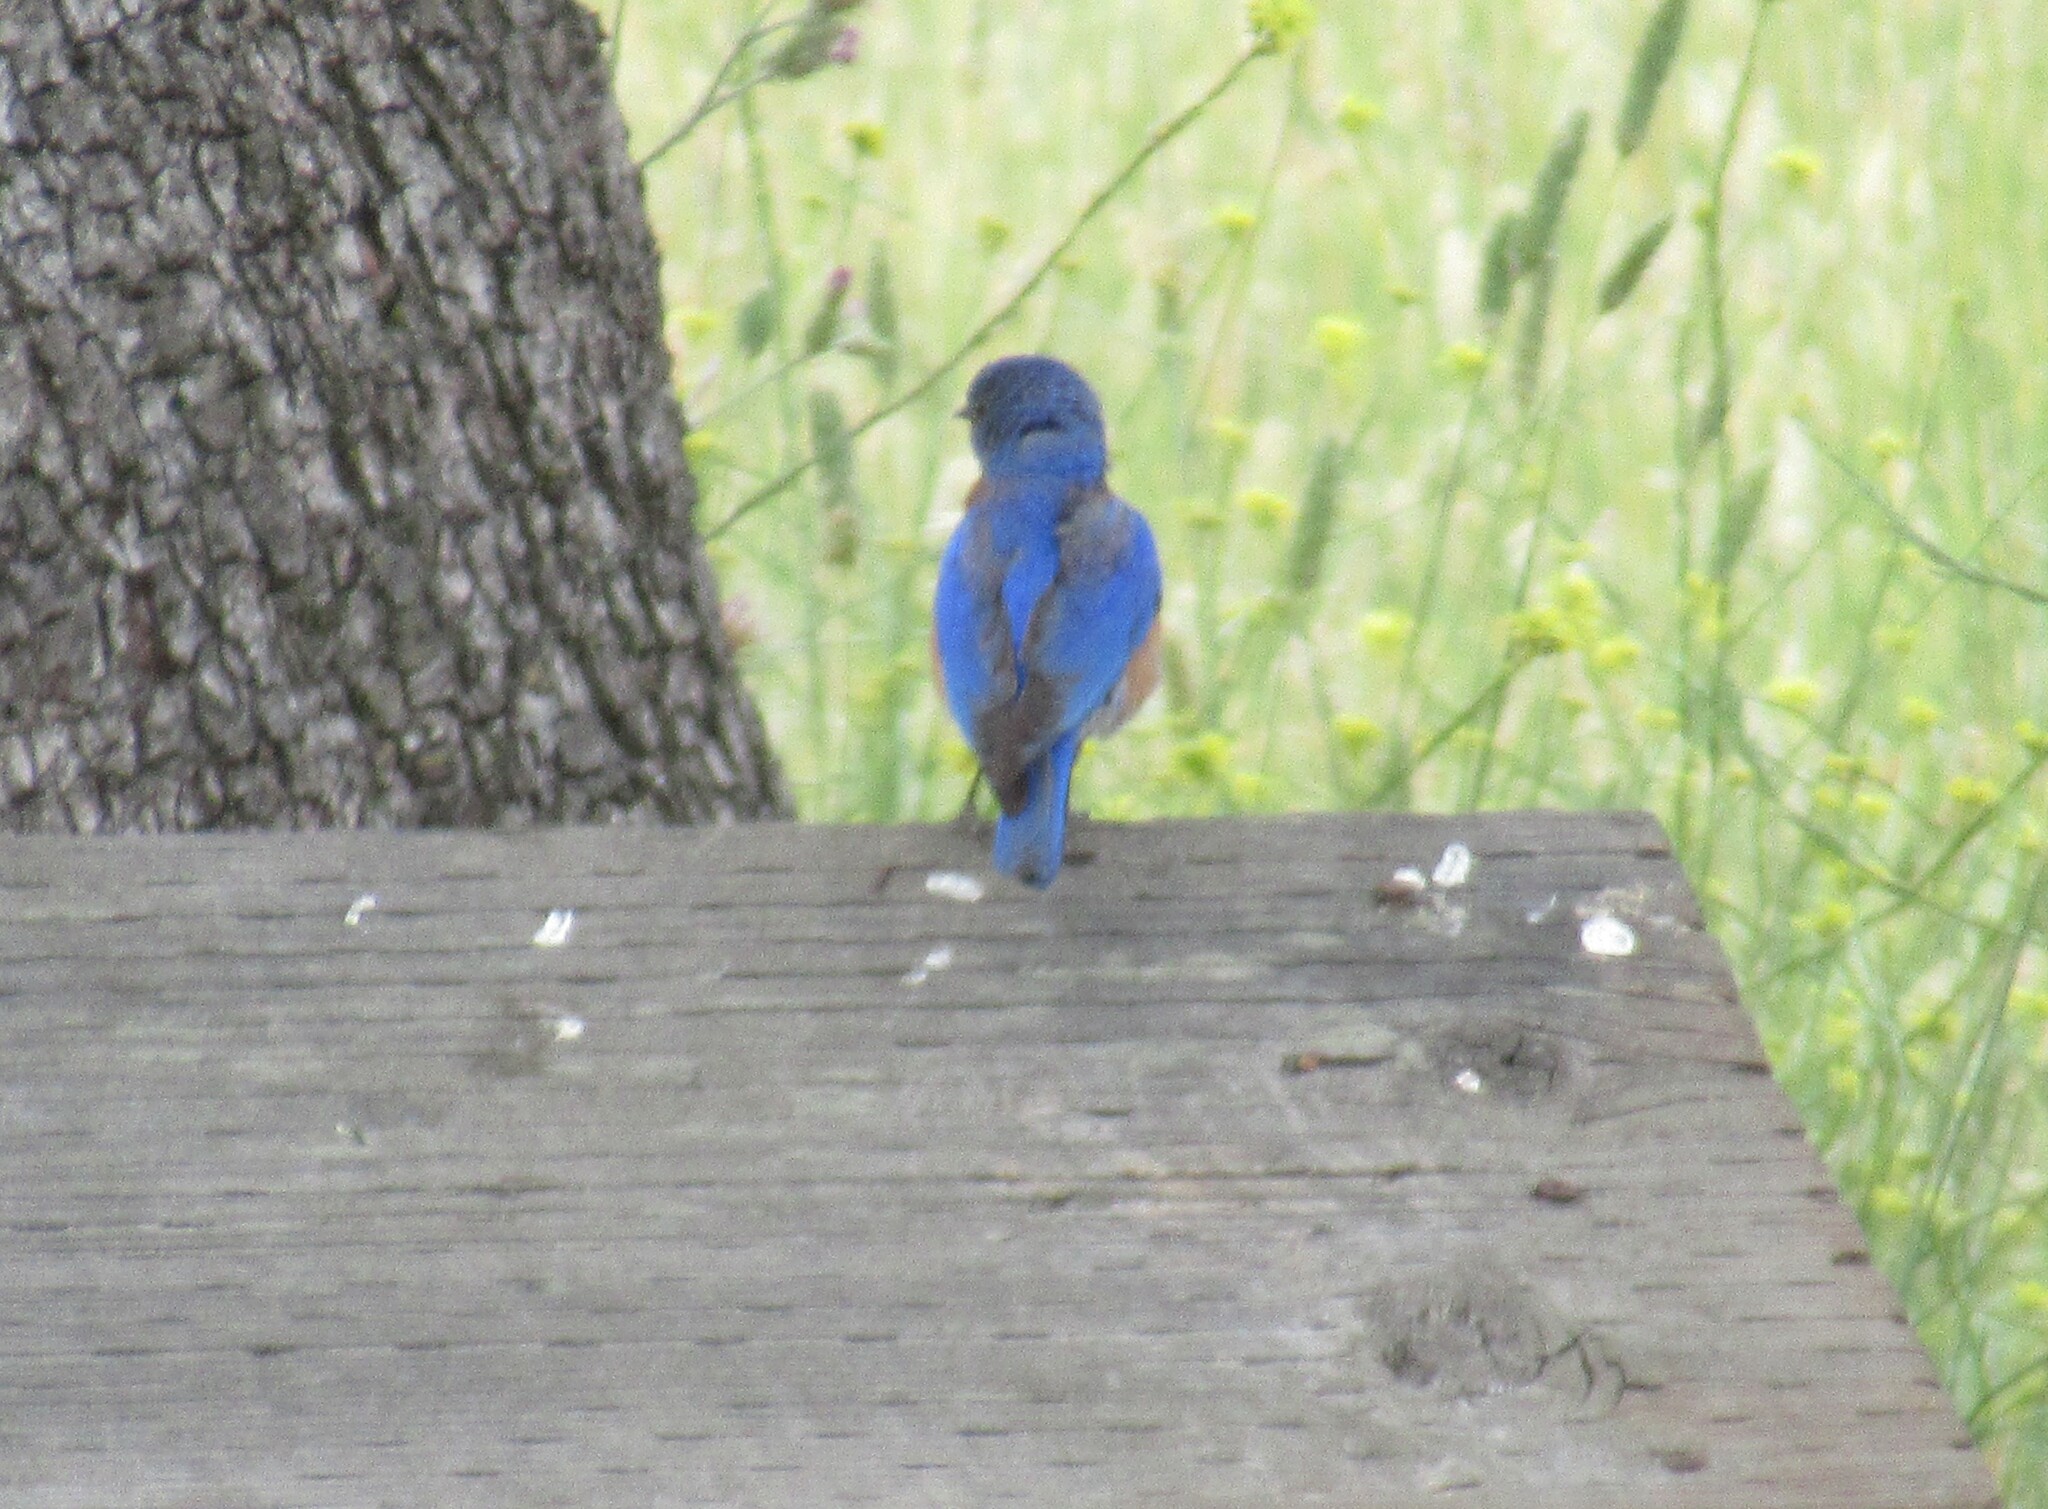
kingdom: Animalia
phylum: Chordata
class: Aves
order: Passeriformes
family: Turdidae
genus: Sialia
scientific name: Sialia mexicana
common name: Western bluebird
